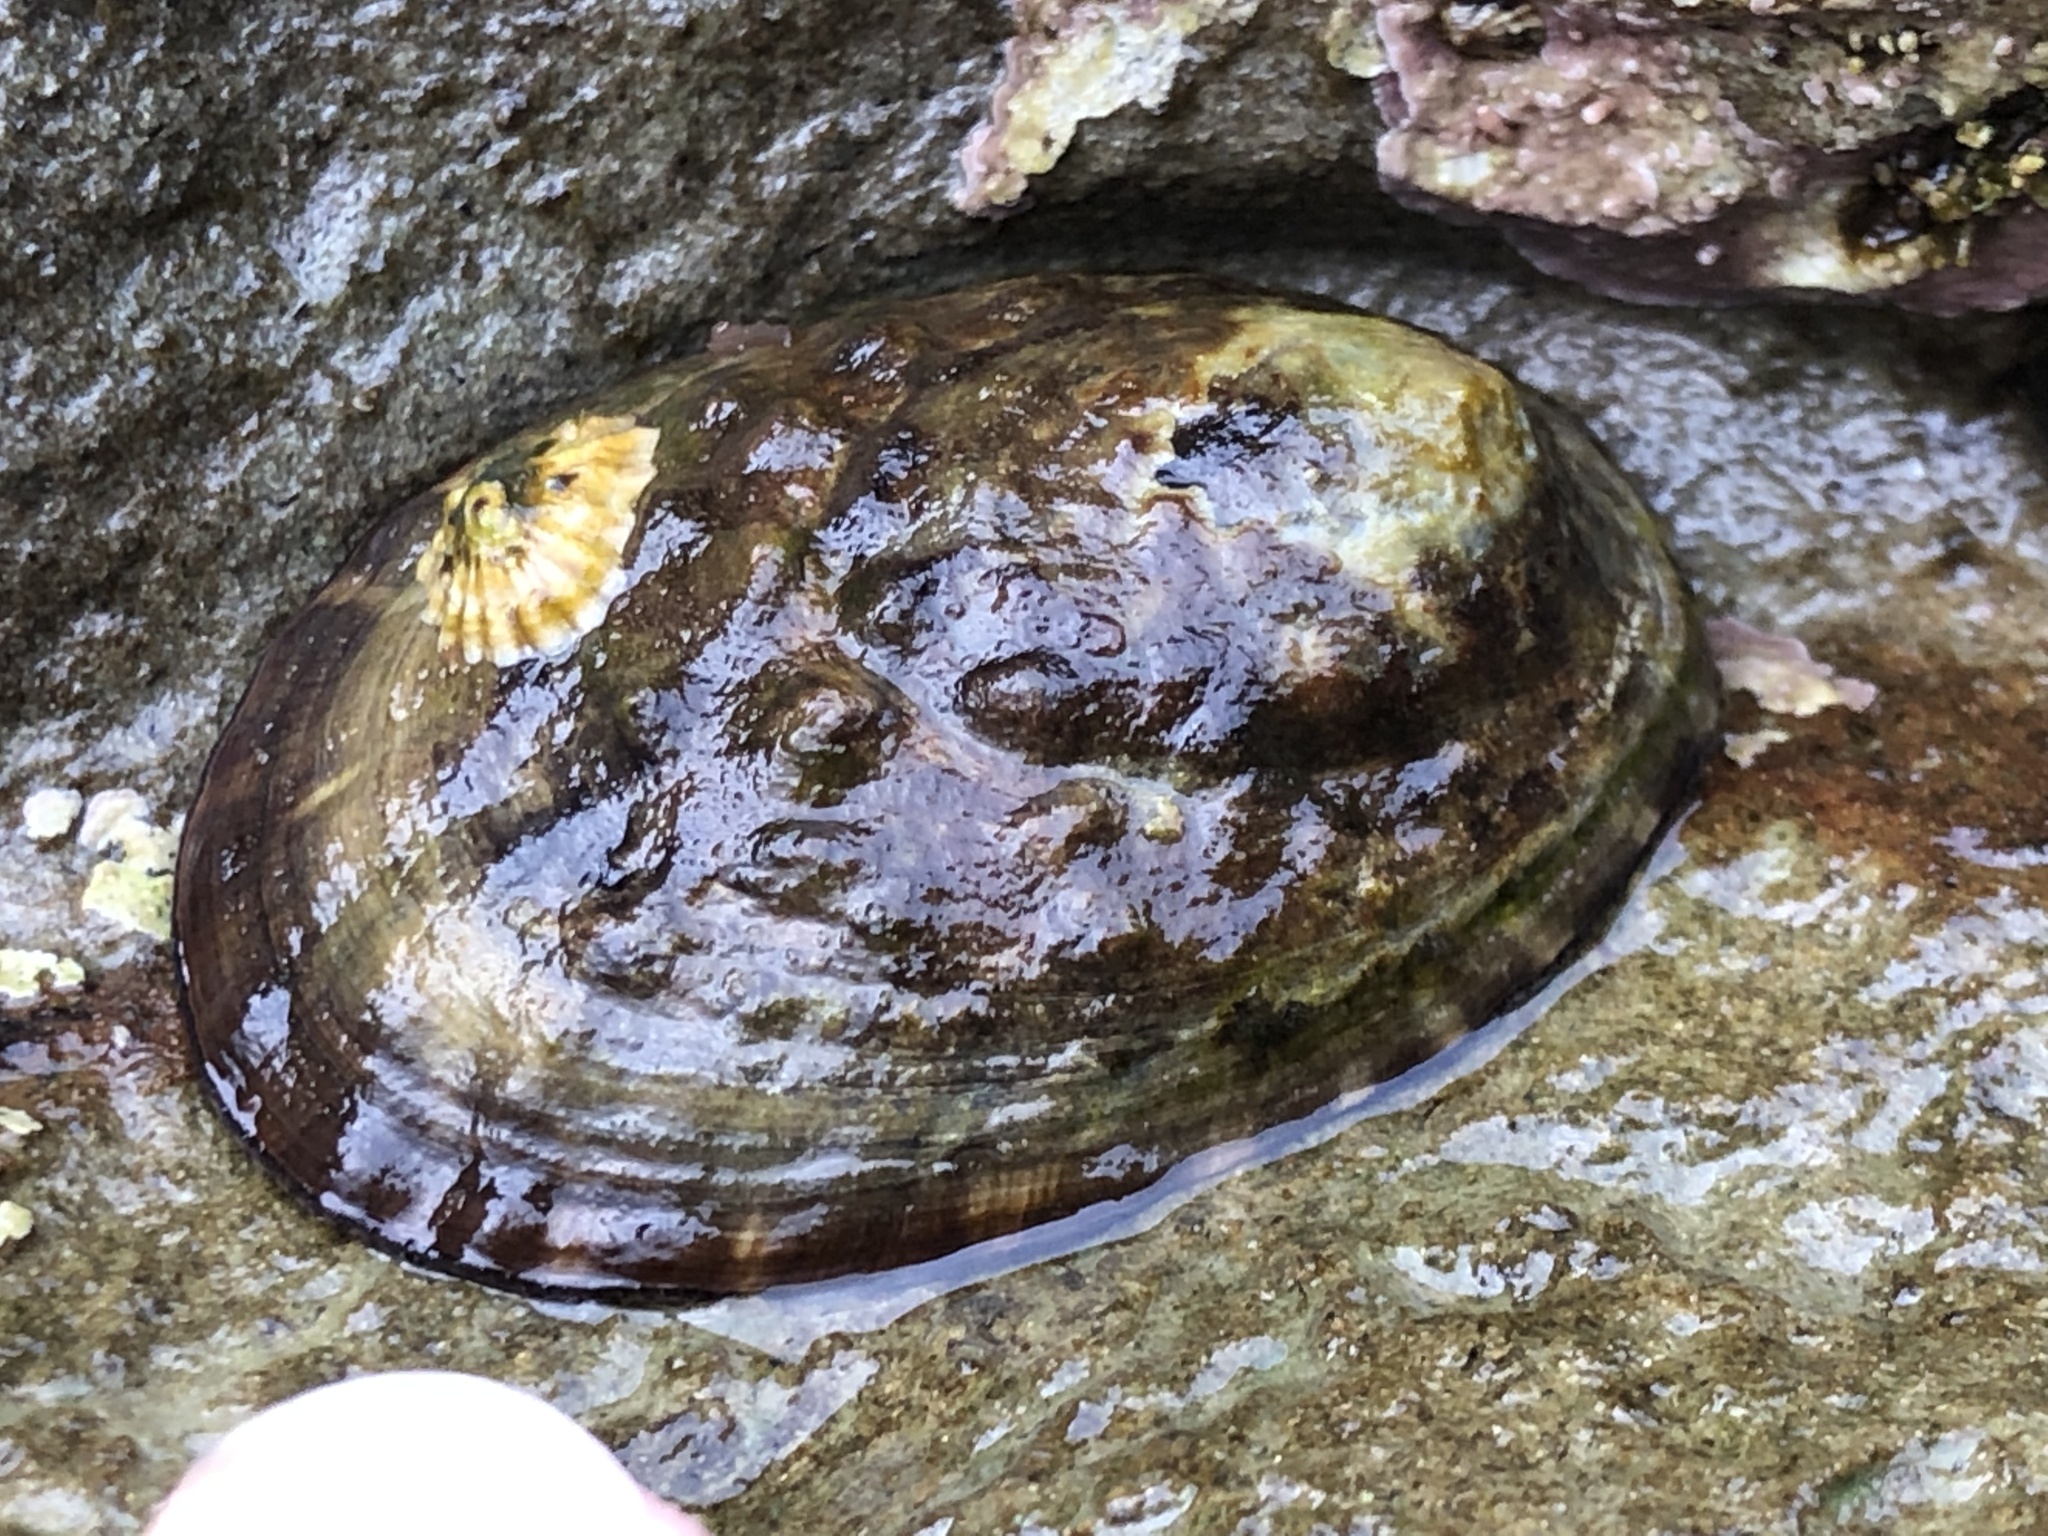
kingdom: Animalia
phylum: Mollusca
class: Gastropoda
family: Lottiidae
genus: Lottia
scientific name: Lottia gigantea
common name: Owl limpet
